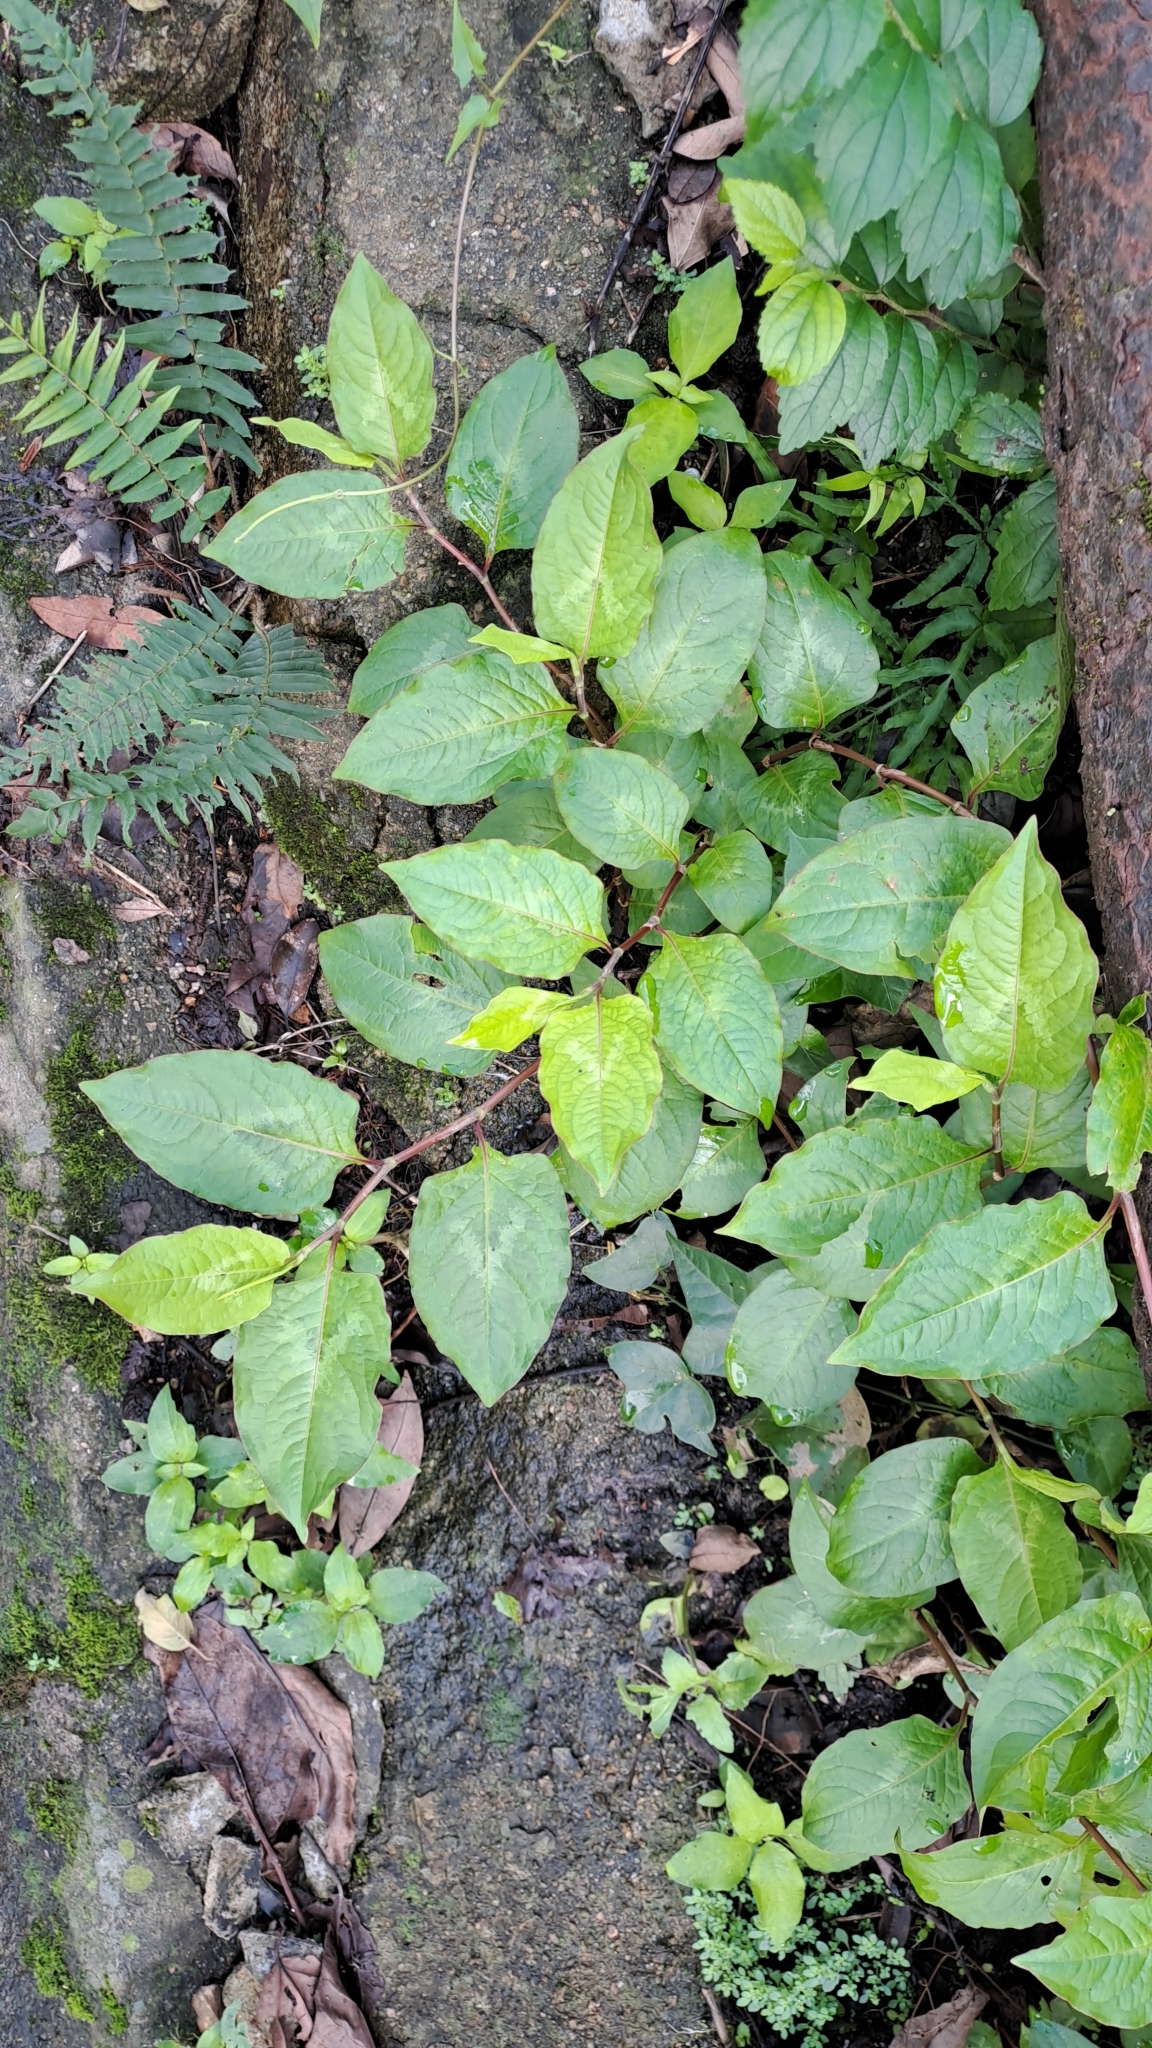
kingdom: Plantae
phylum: Tracheophyta
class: Magnoliopsida
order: Caryophyllales
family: Polygonaceae
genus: Persicaria
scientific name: Persicaria chinensis
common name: Chinese knotweed
